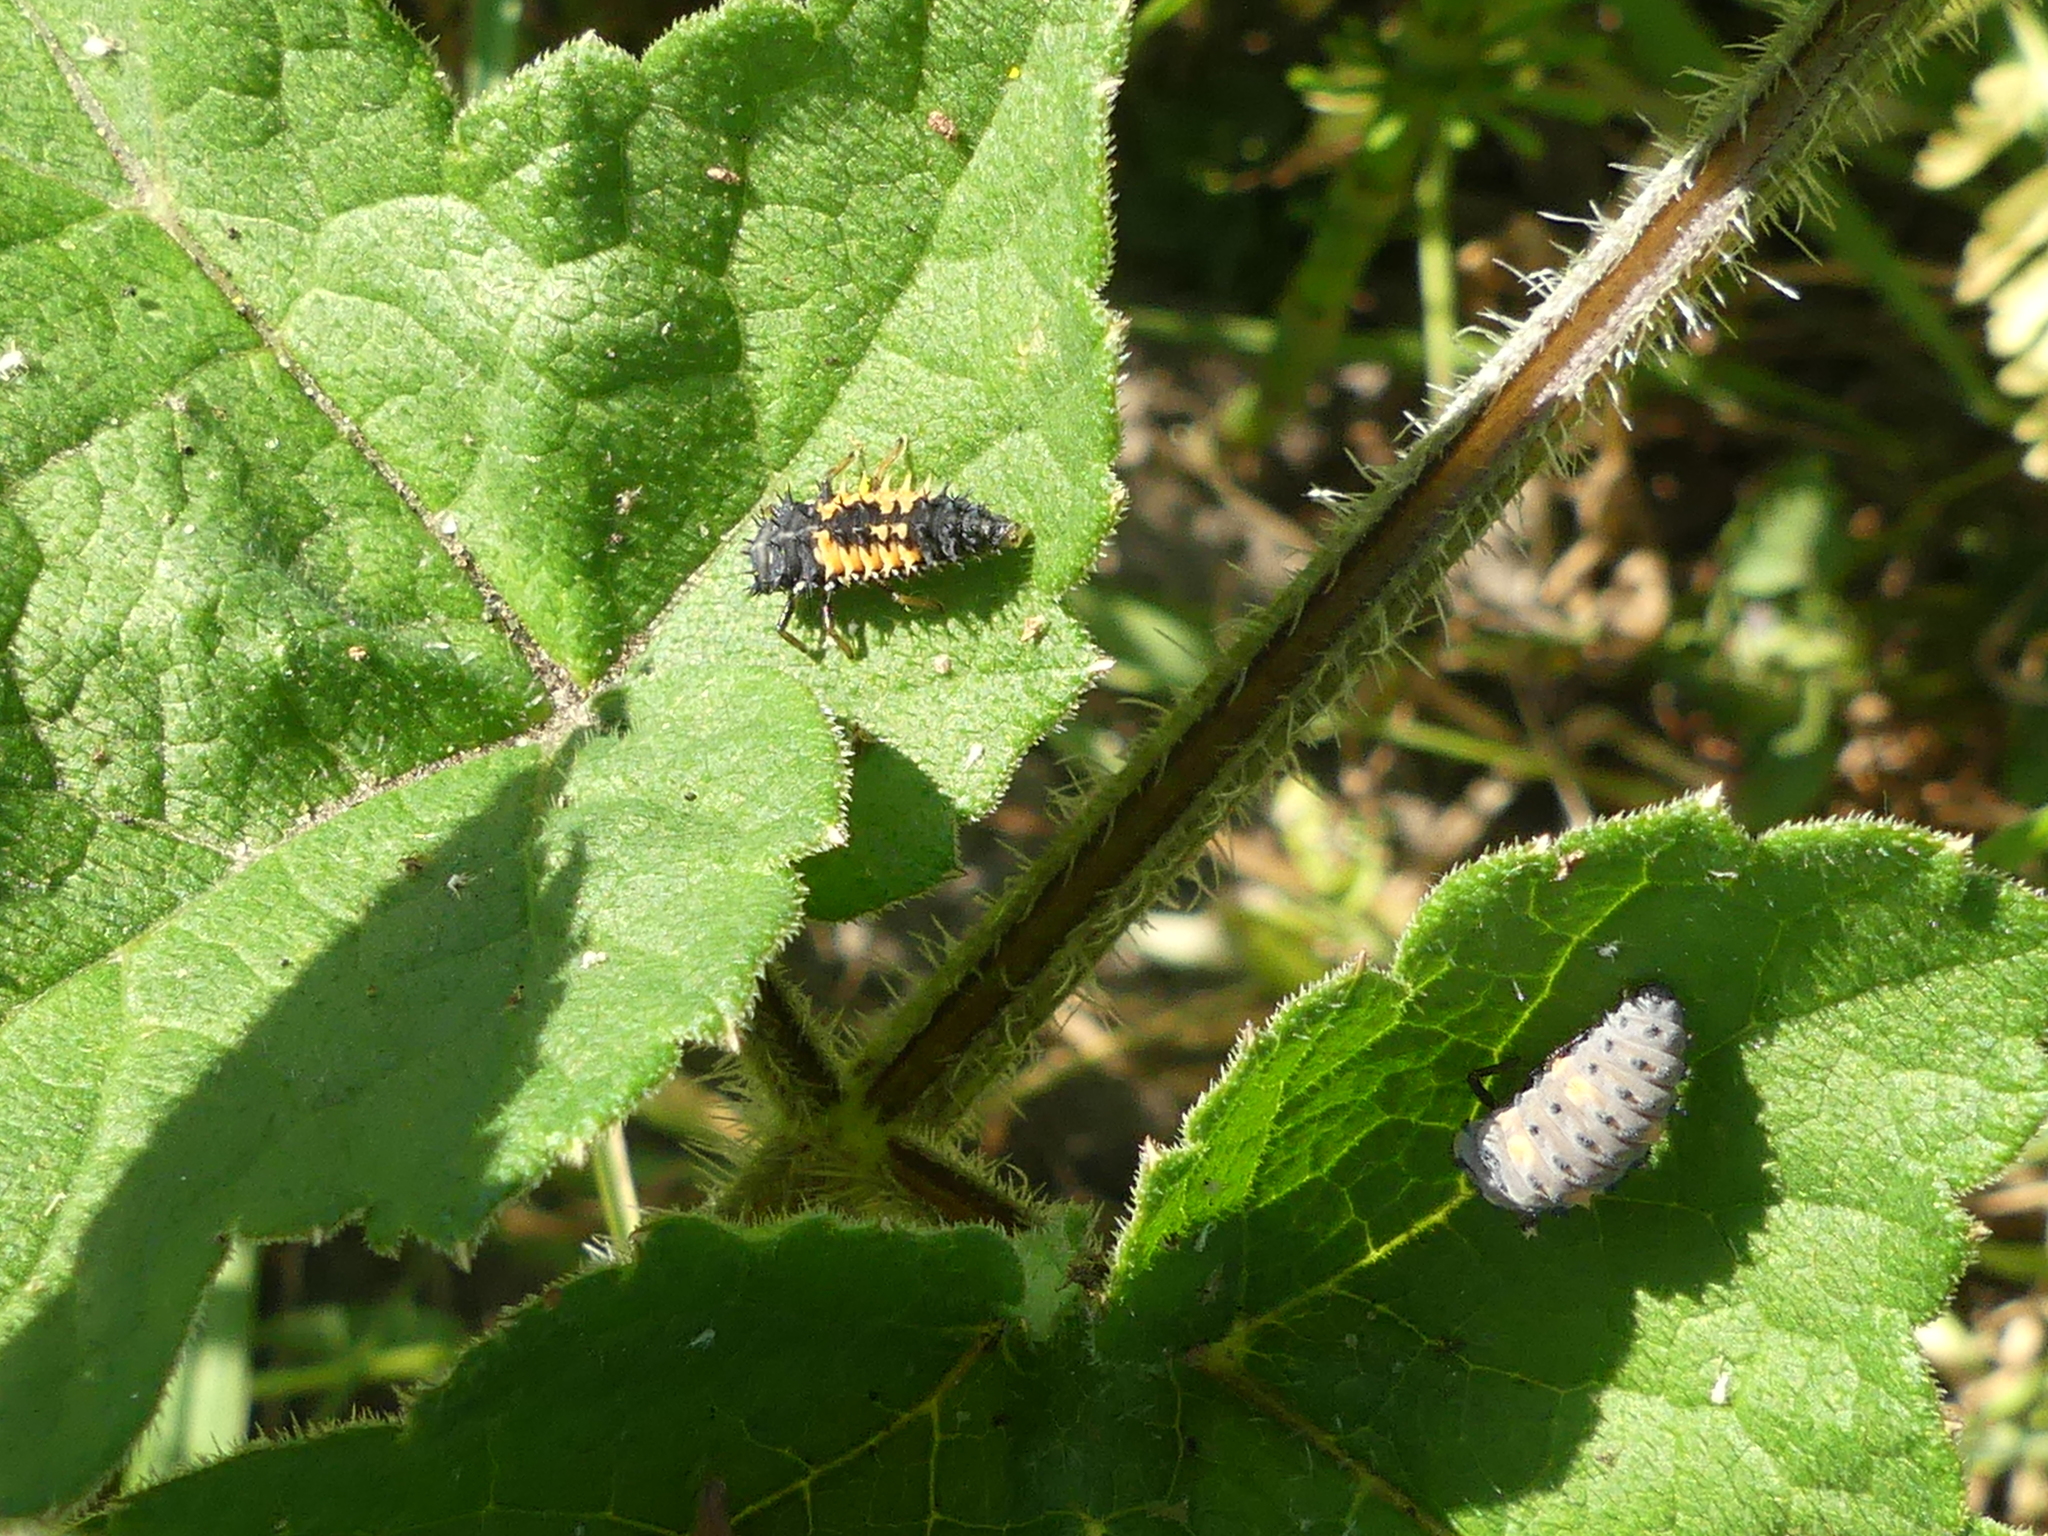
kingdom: Animalia
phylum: Arthropoda
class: Insecta
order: Coleoptera
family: Coccinellidae
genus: Harmonia
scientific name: Harmonia axyridis
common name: Harlequin ladybird
